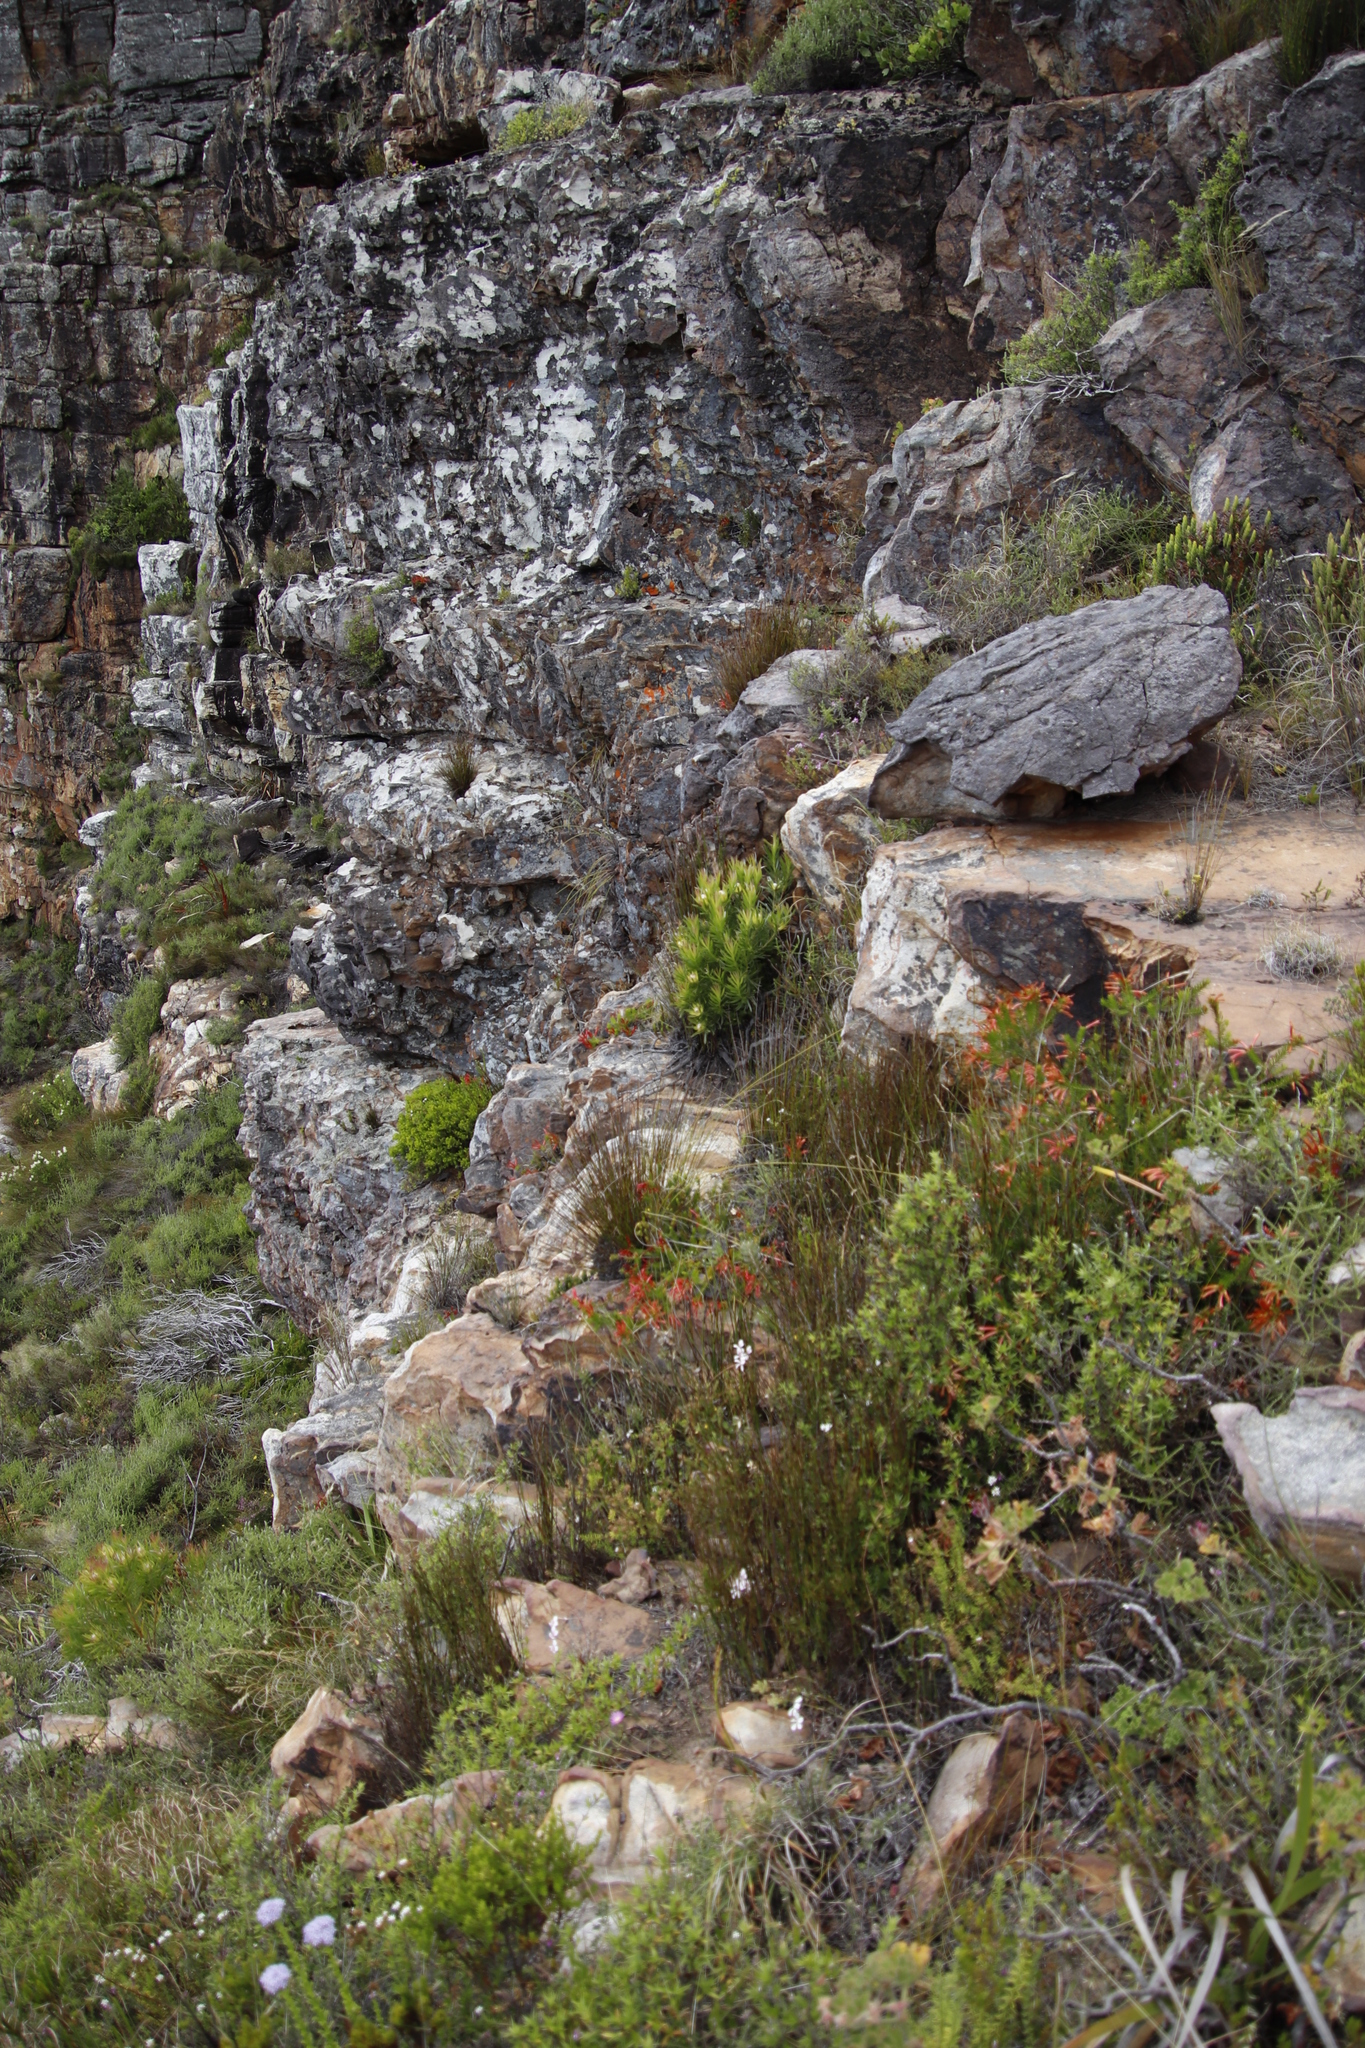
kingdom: Plantae
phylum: Tracheophyta
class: Magnoliopsida
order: Ericales
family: Ericaceae
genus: Erica
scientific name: Erica nevillei
